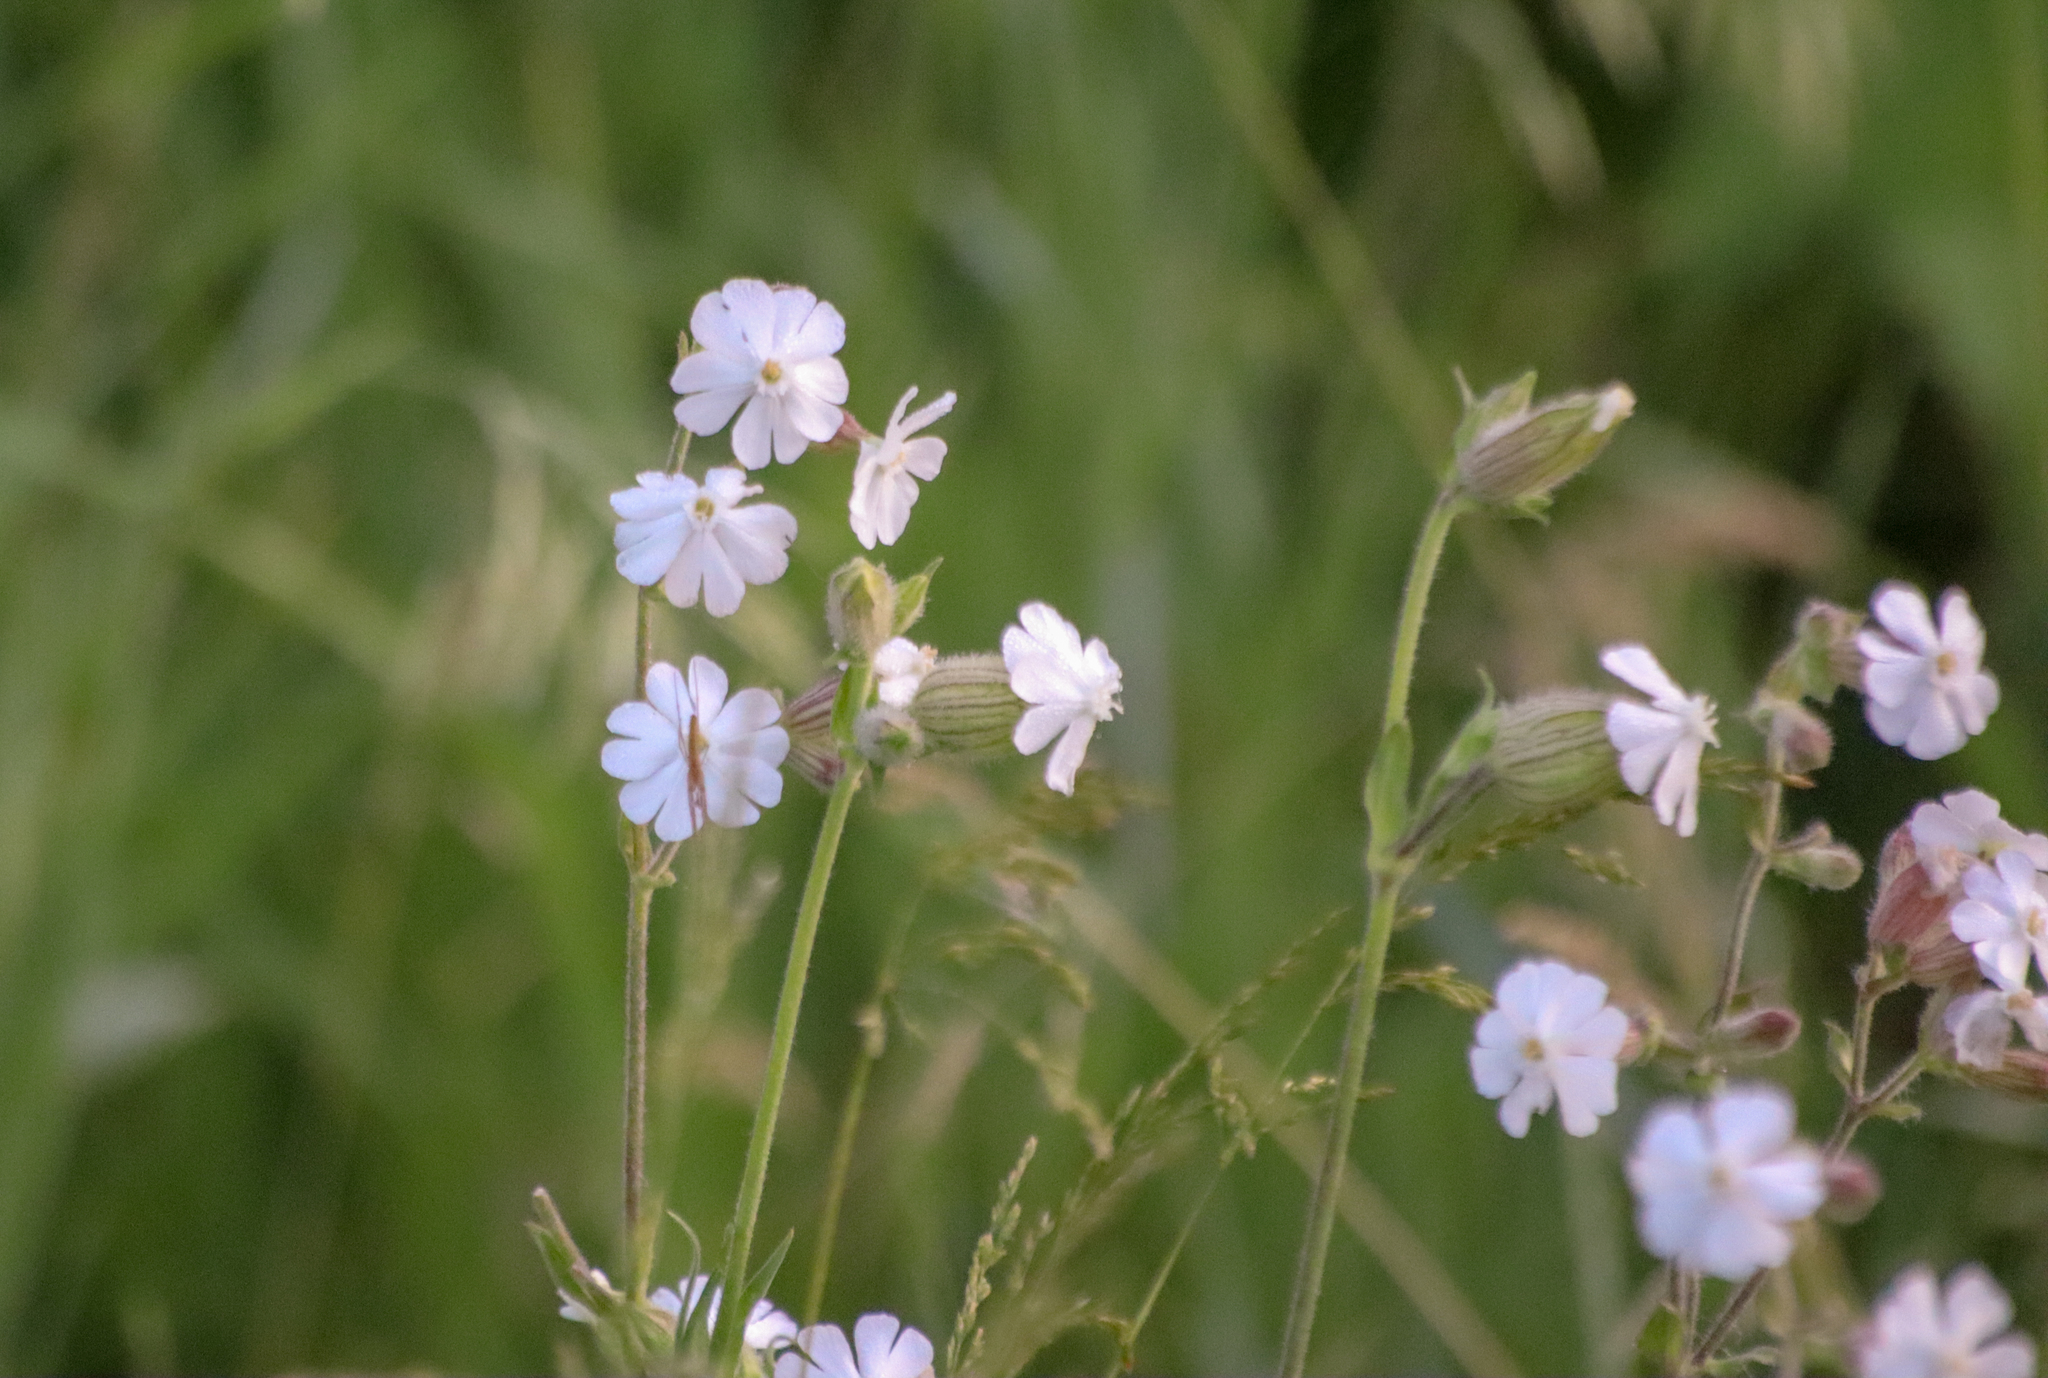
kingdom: Plantae
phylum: Tracheophyta
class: Magnoliopsida
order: Caryophyllales
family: Caryophyllaceae
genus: Silene
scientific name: Silene latifolia
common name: White campion
